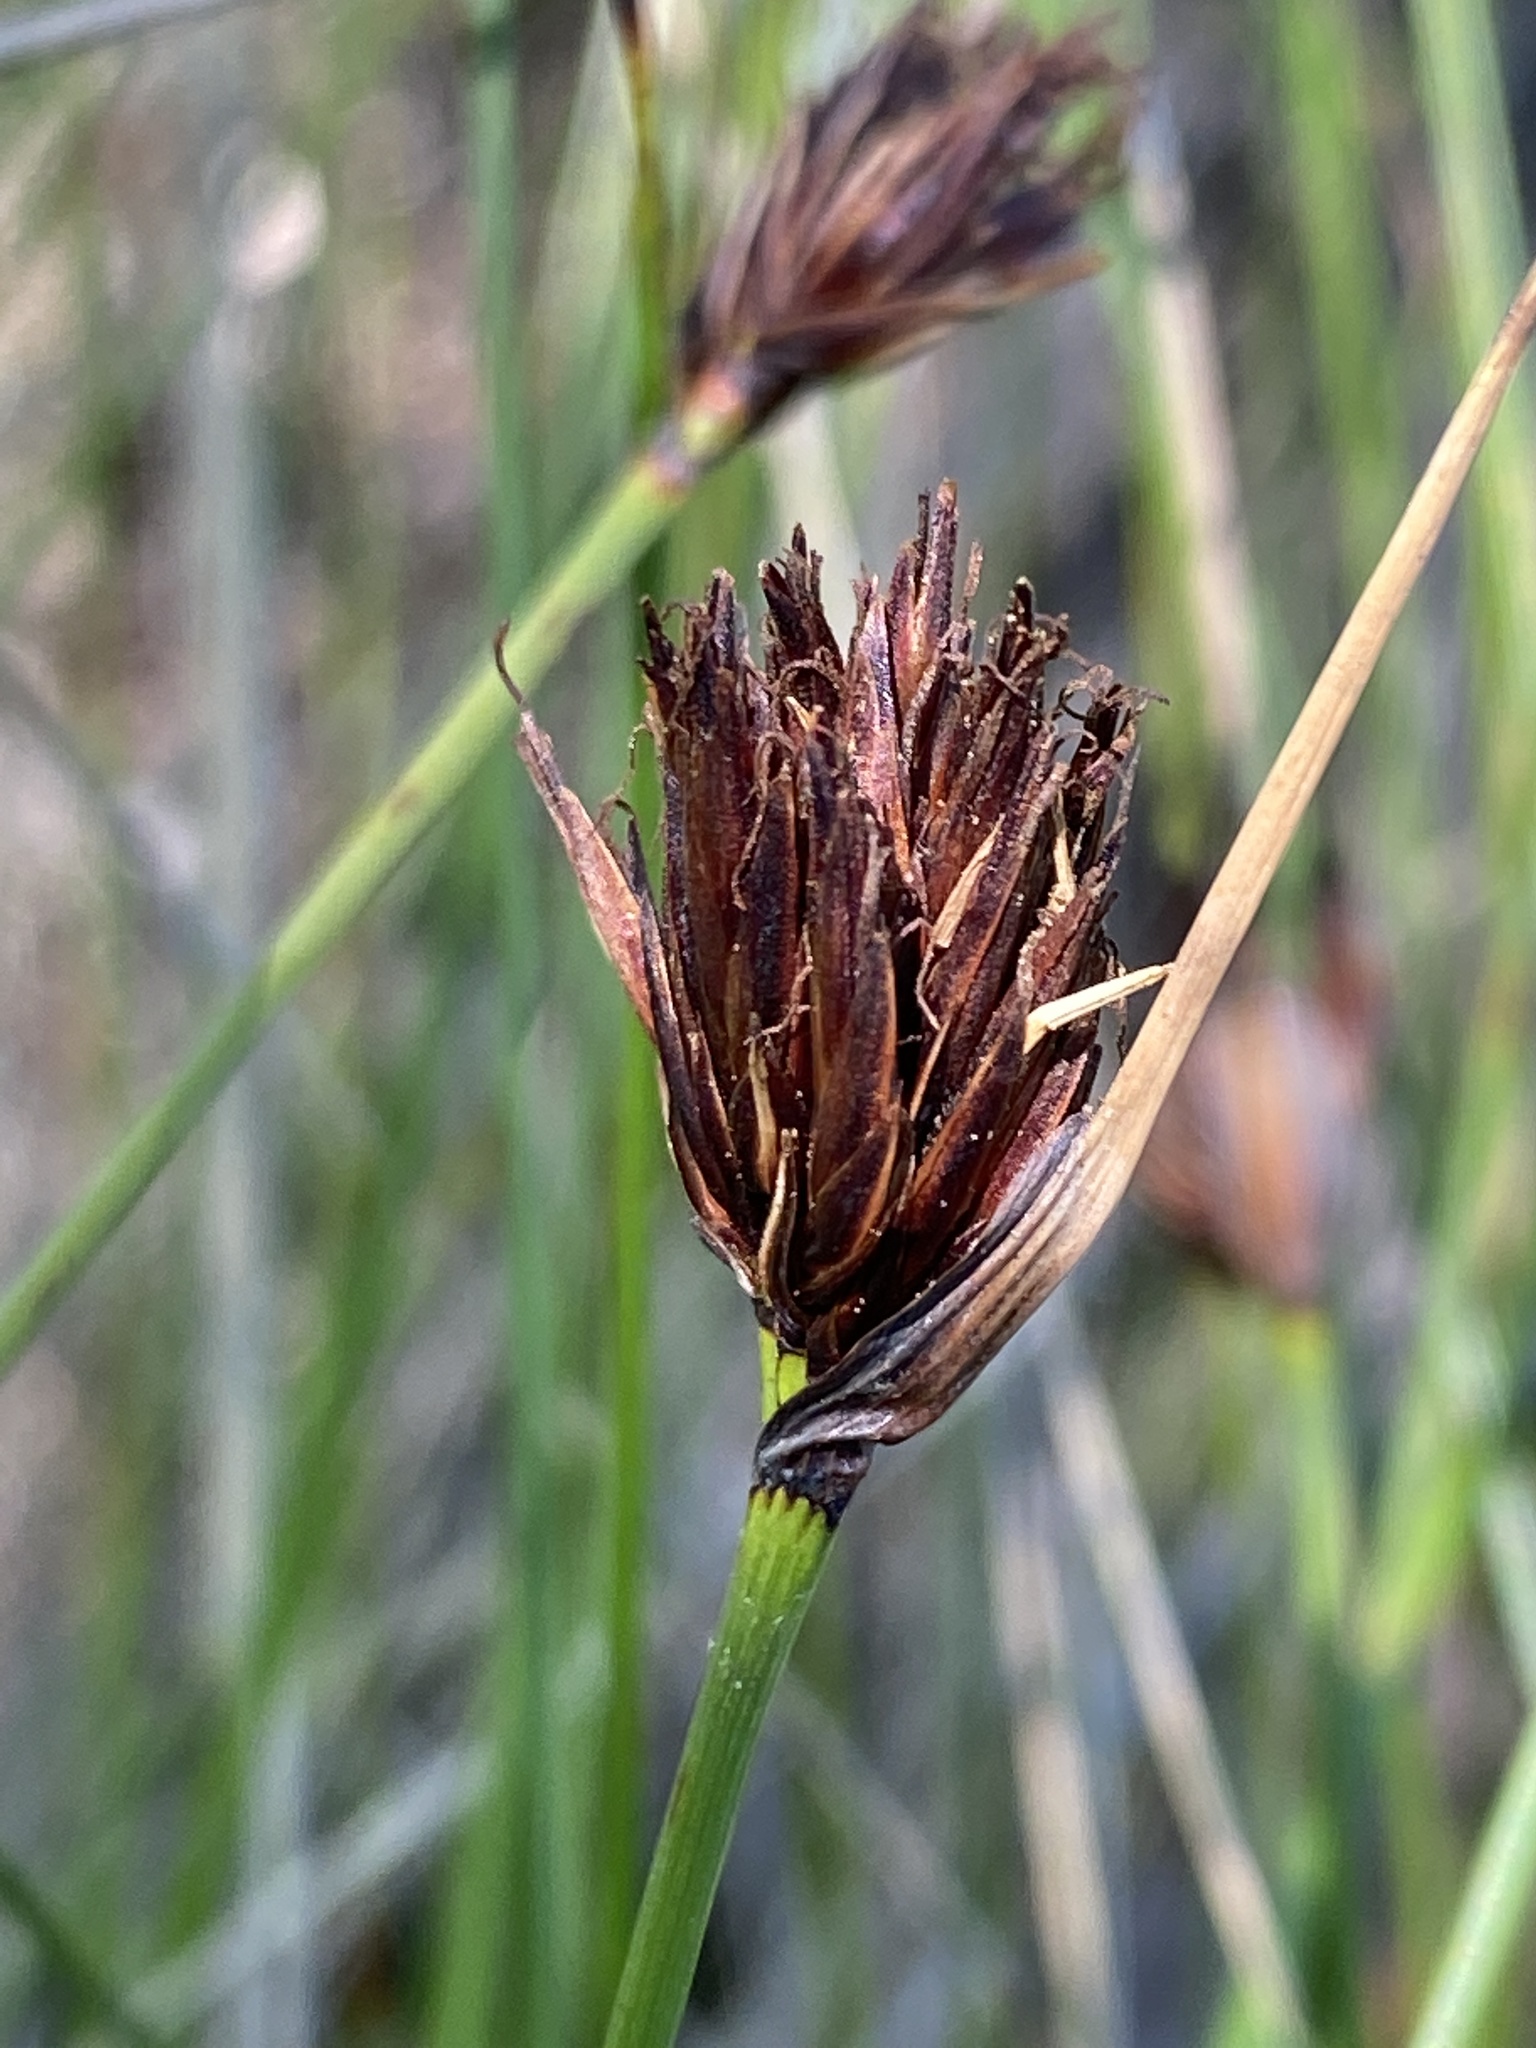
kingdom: Plantae
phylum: Tracheophyta
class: Liliopsida
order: Poales
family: Cyperaceae
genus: Schoenus
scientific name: Schoenus nigricans
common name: Black bog-rush
